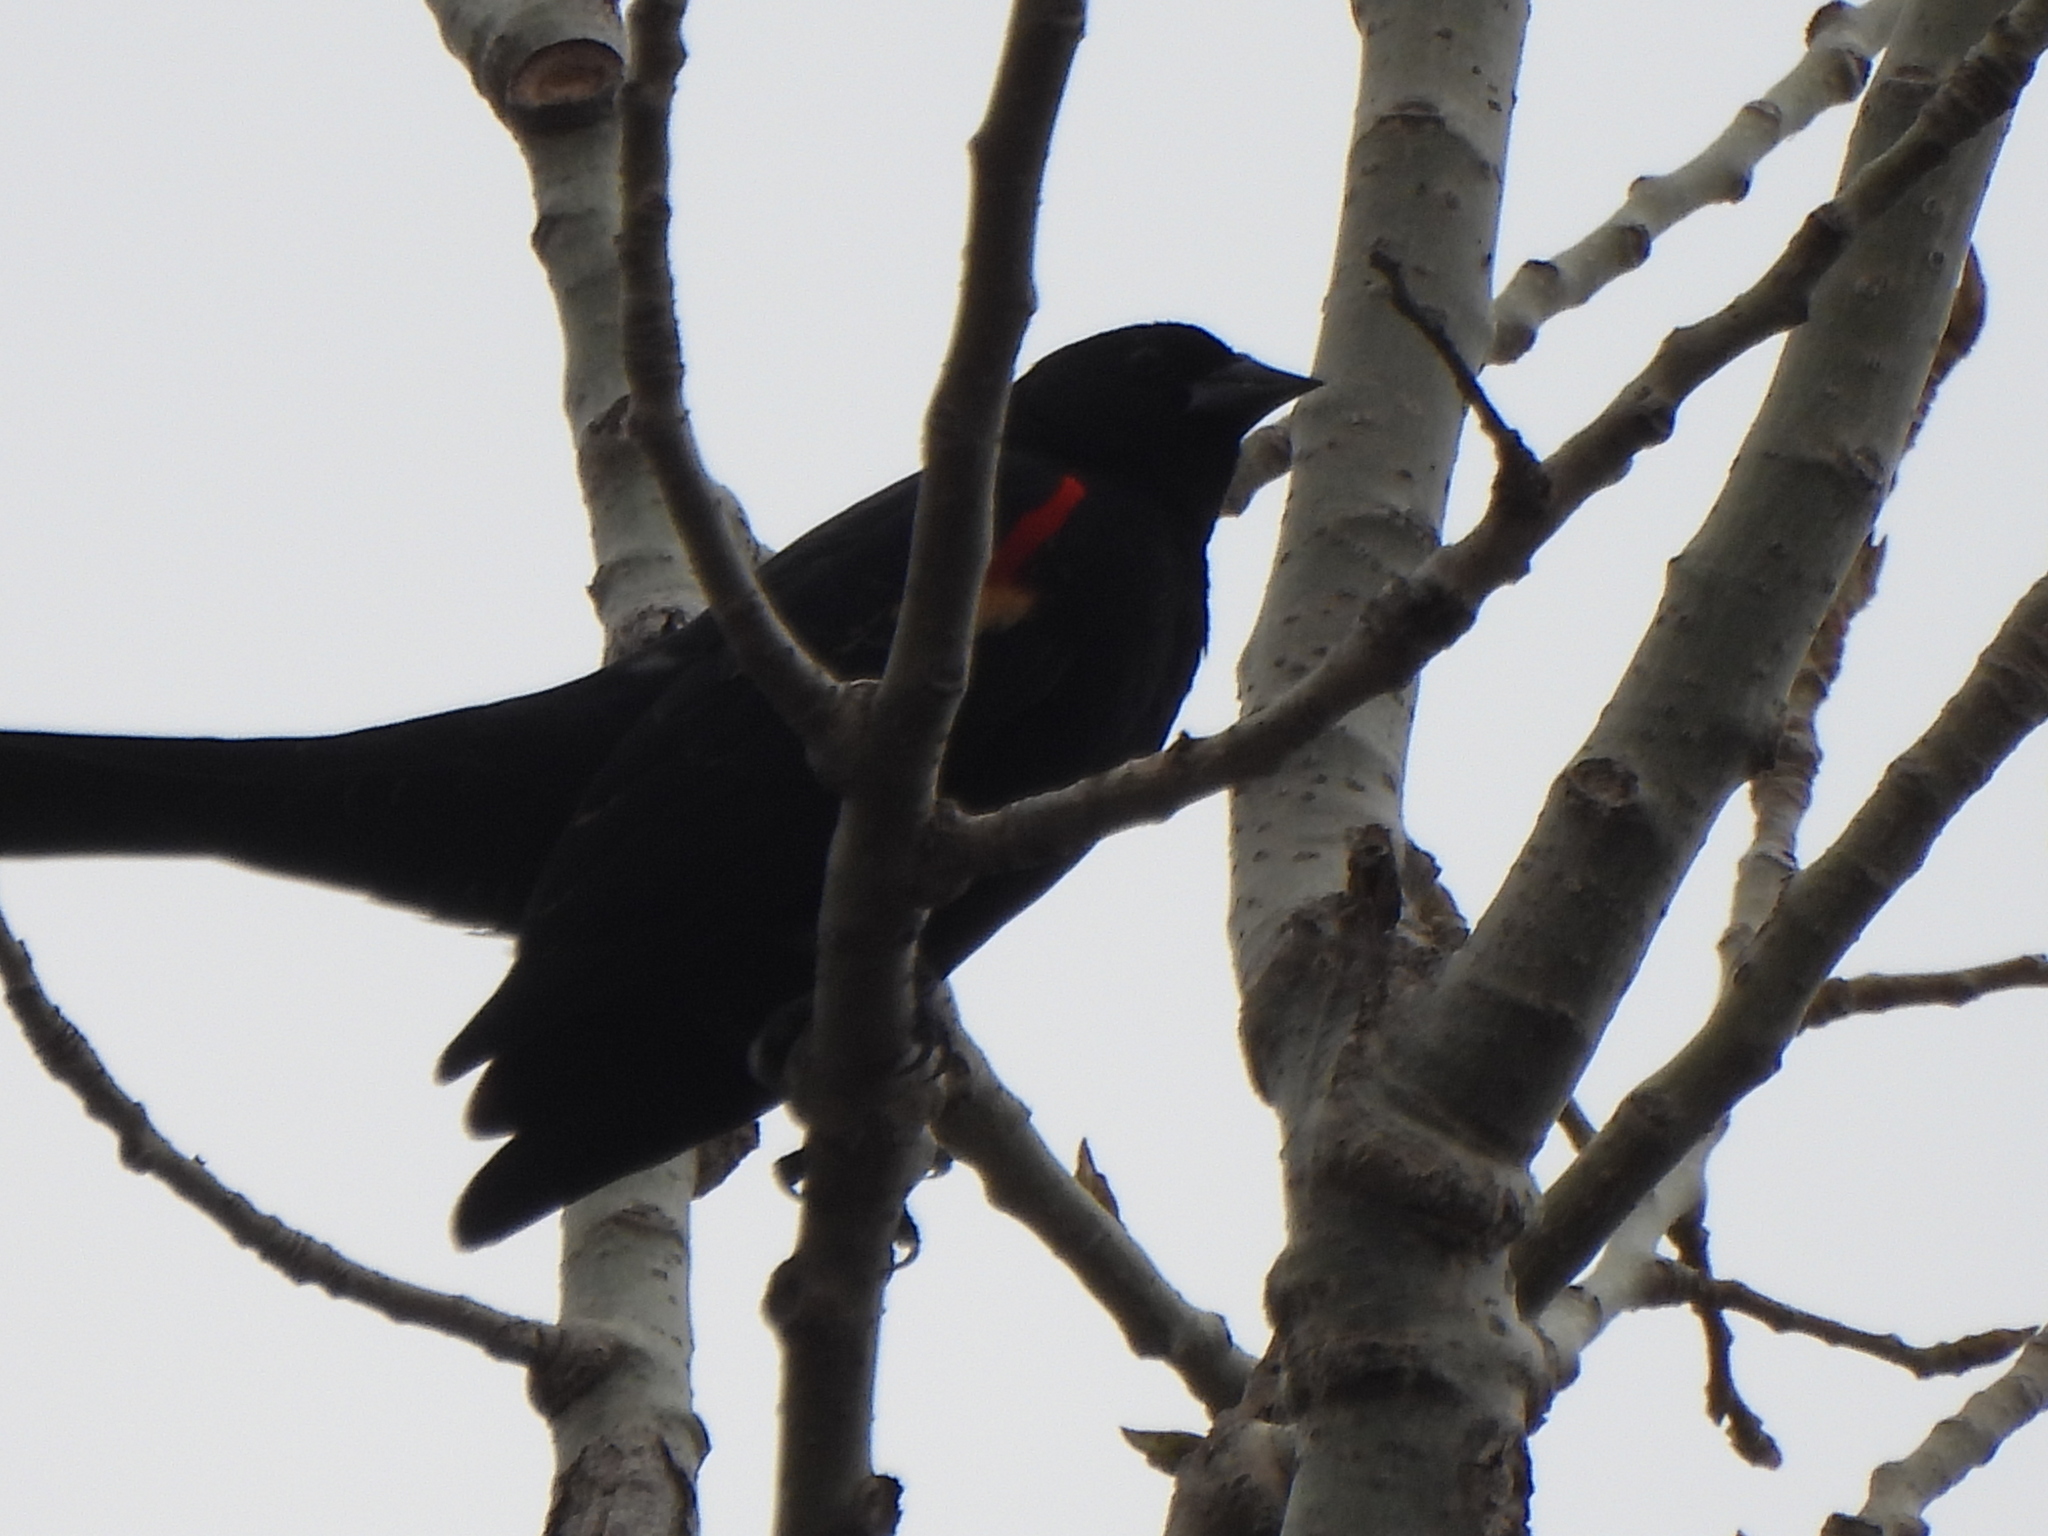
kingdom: Animalia
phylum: Chordata
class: Aves
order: Passeriformes
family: Icteridae
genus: Agelaius
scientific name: Agelaius phoeniceus
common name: Red-winged blackbird
